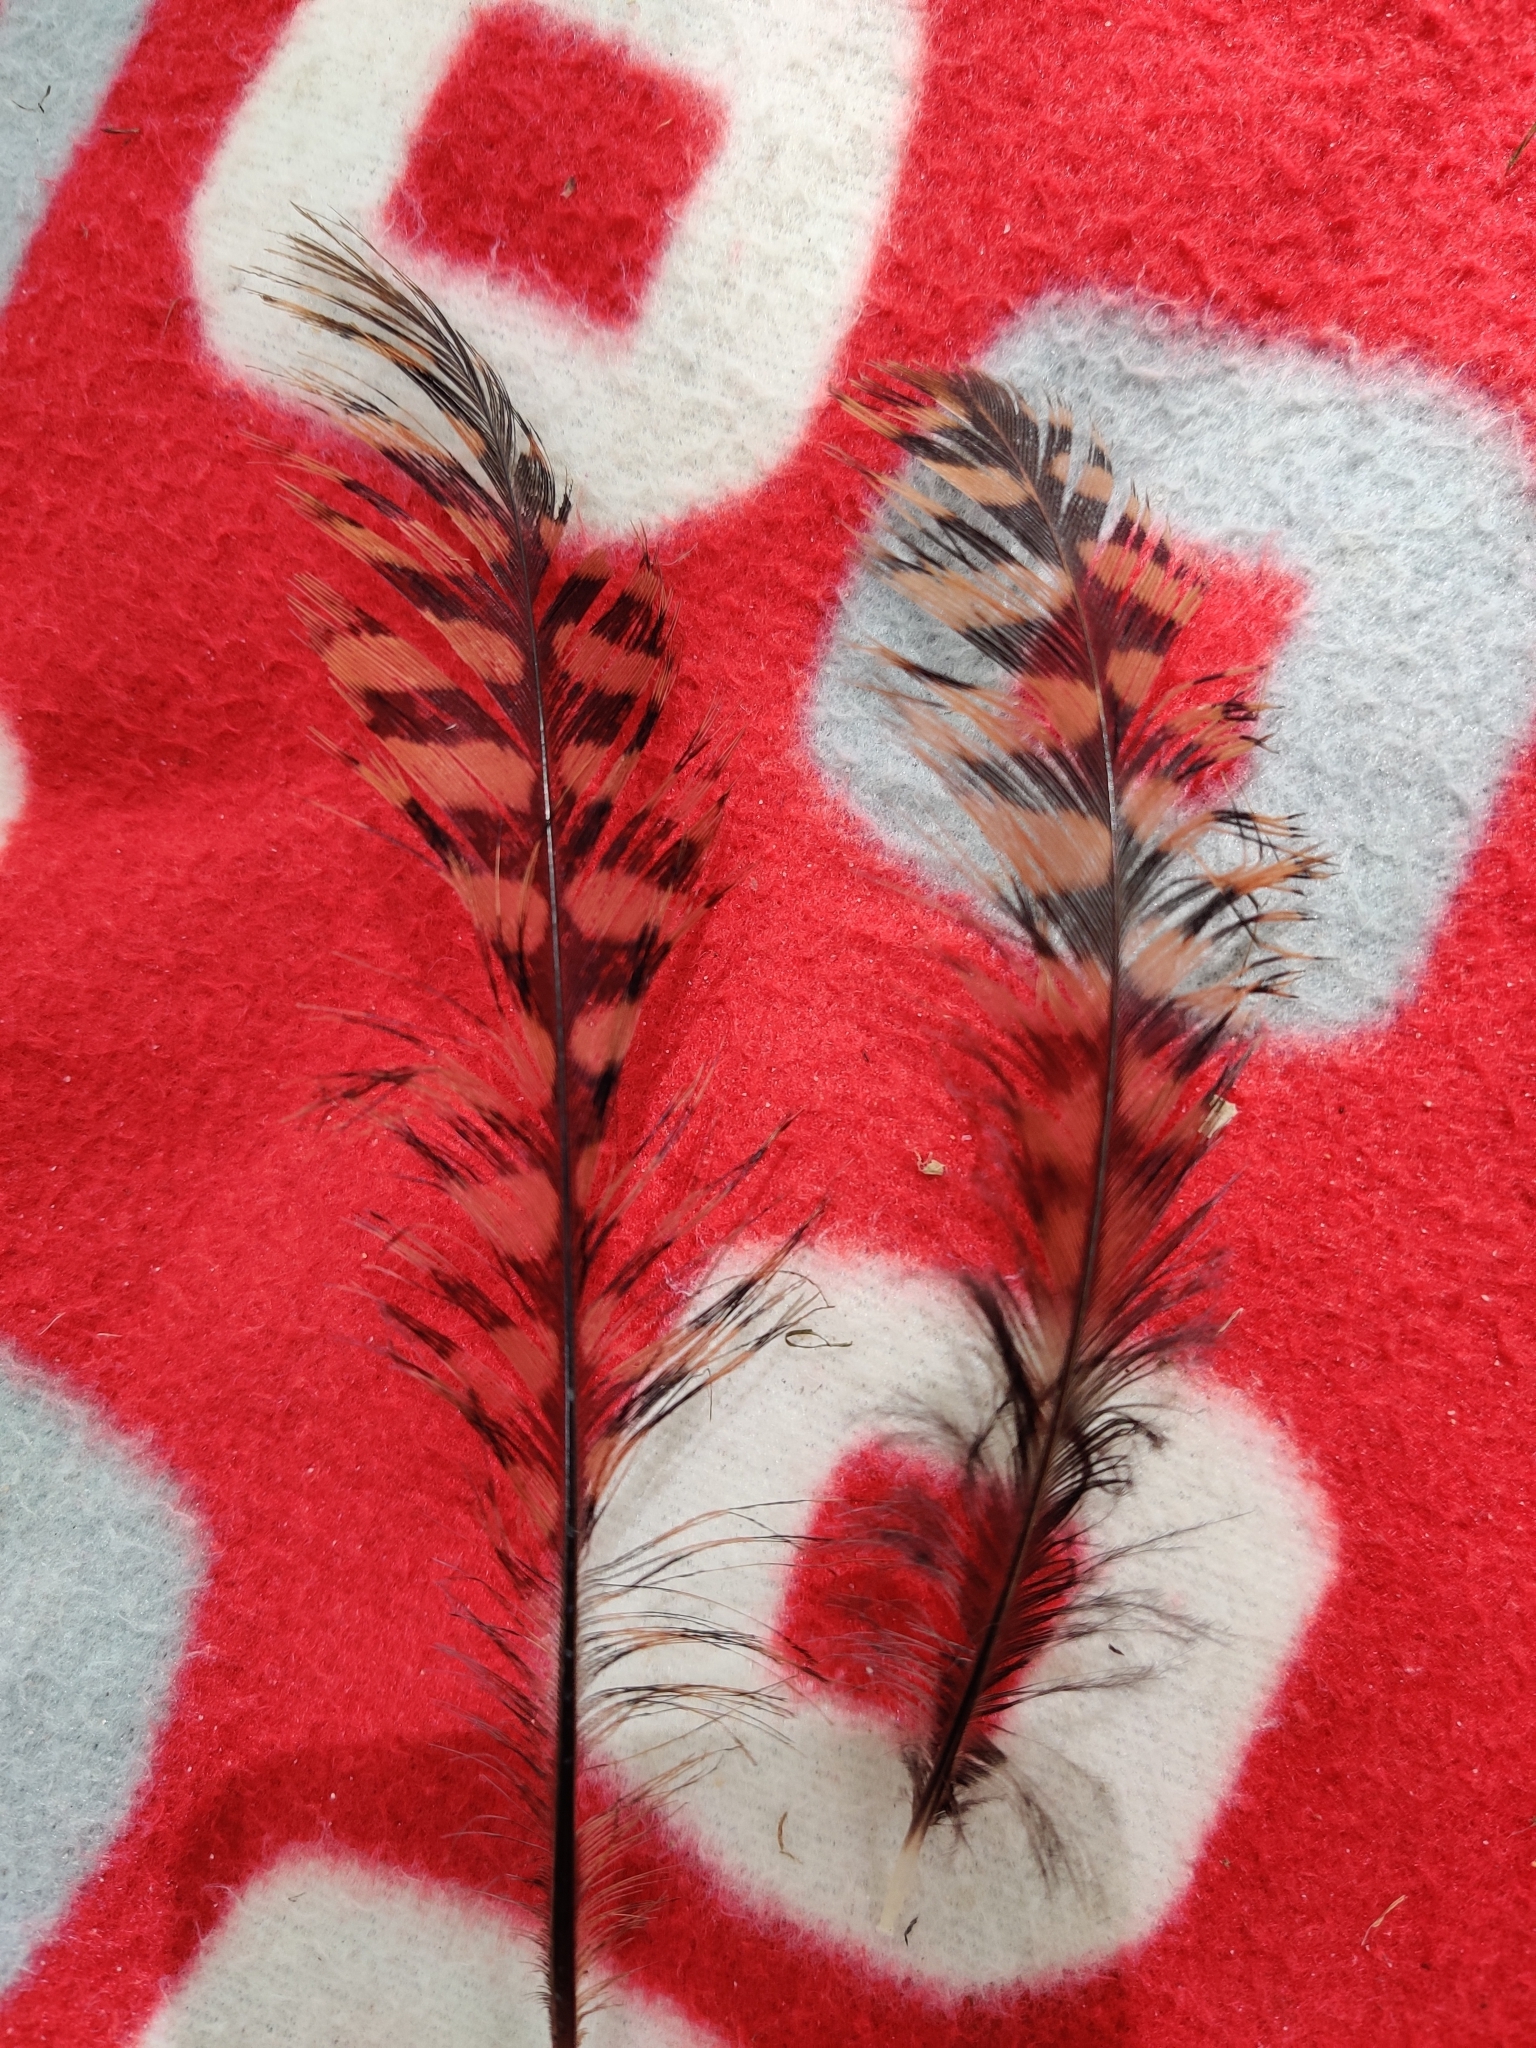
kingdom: Animalia
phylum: Chordata
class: Aves
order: Gruiformes
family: Rallidae
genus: Gallirallus
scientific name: Gallirallus australis
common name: Weka
